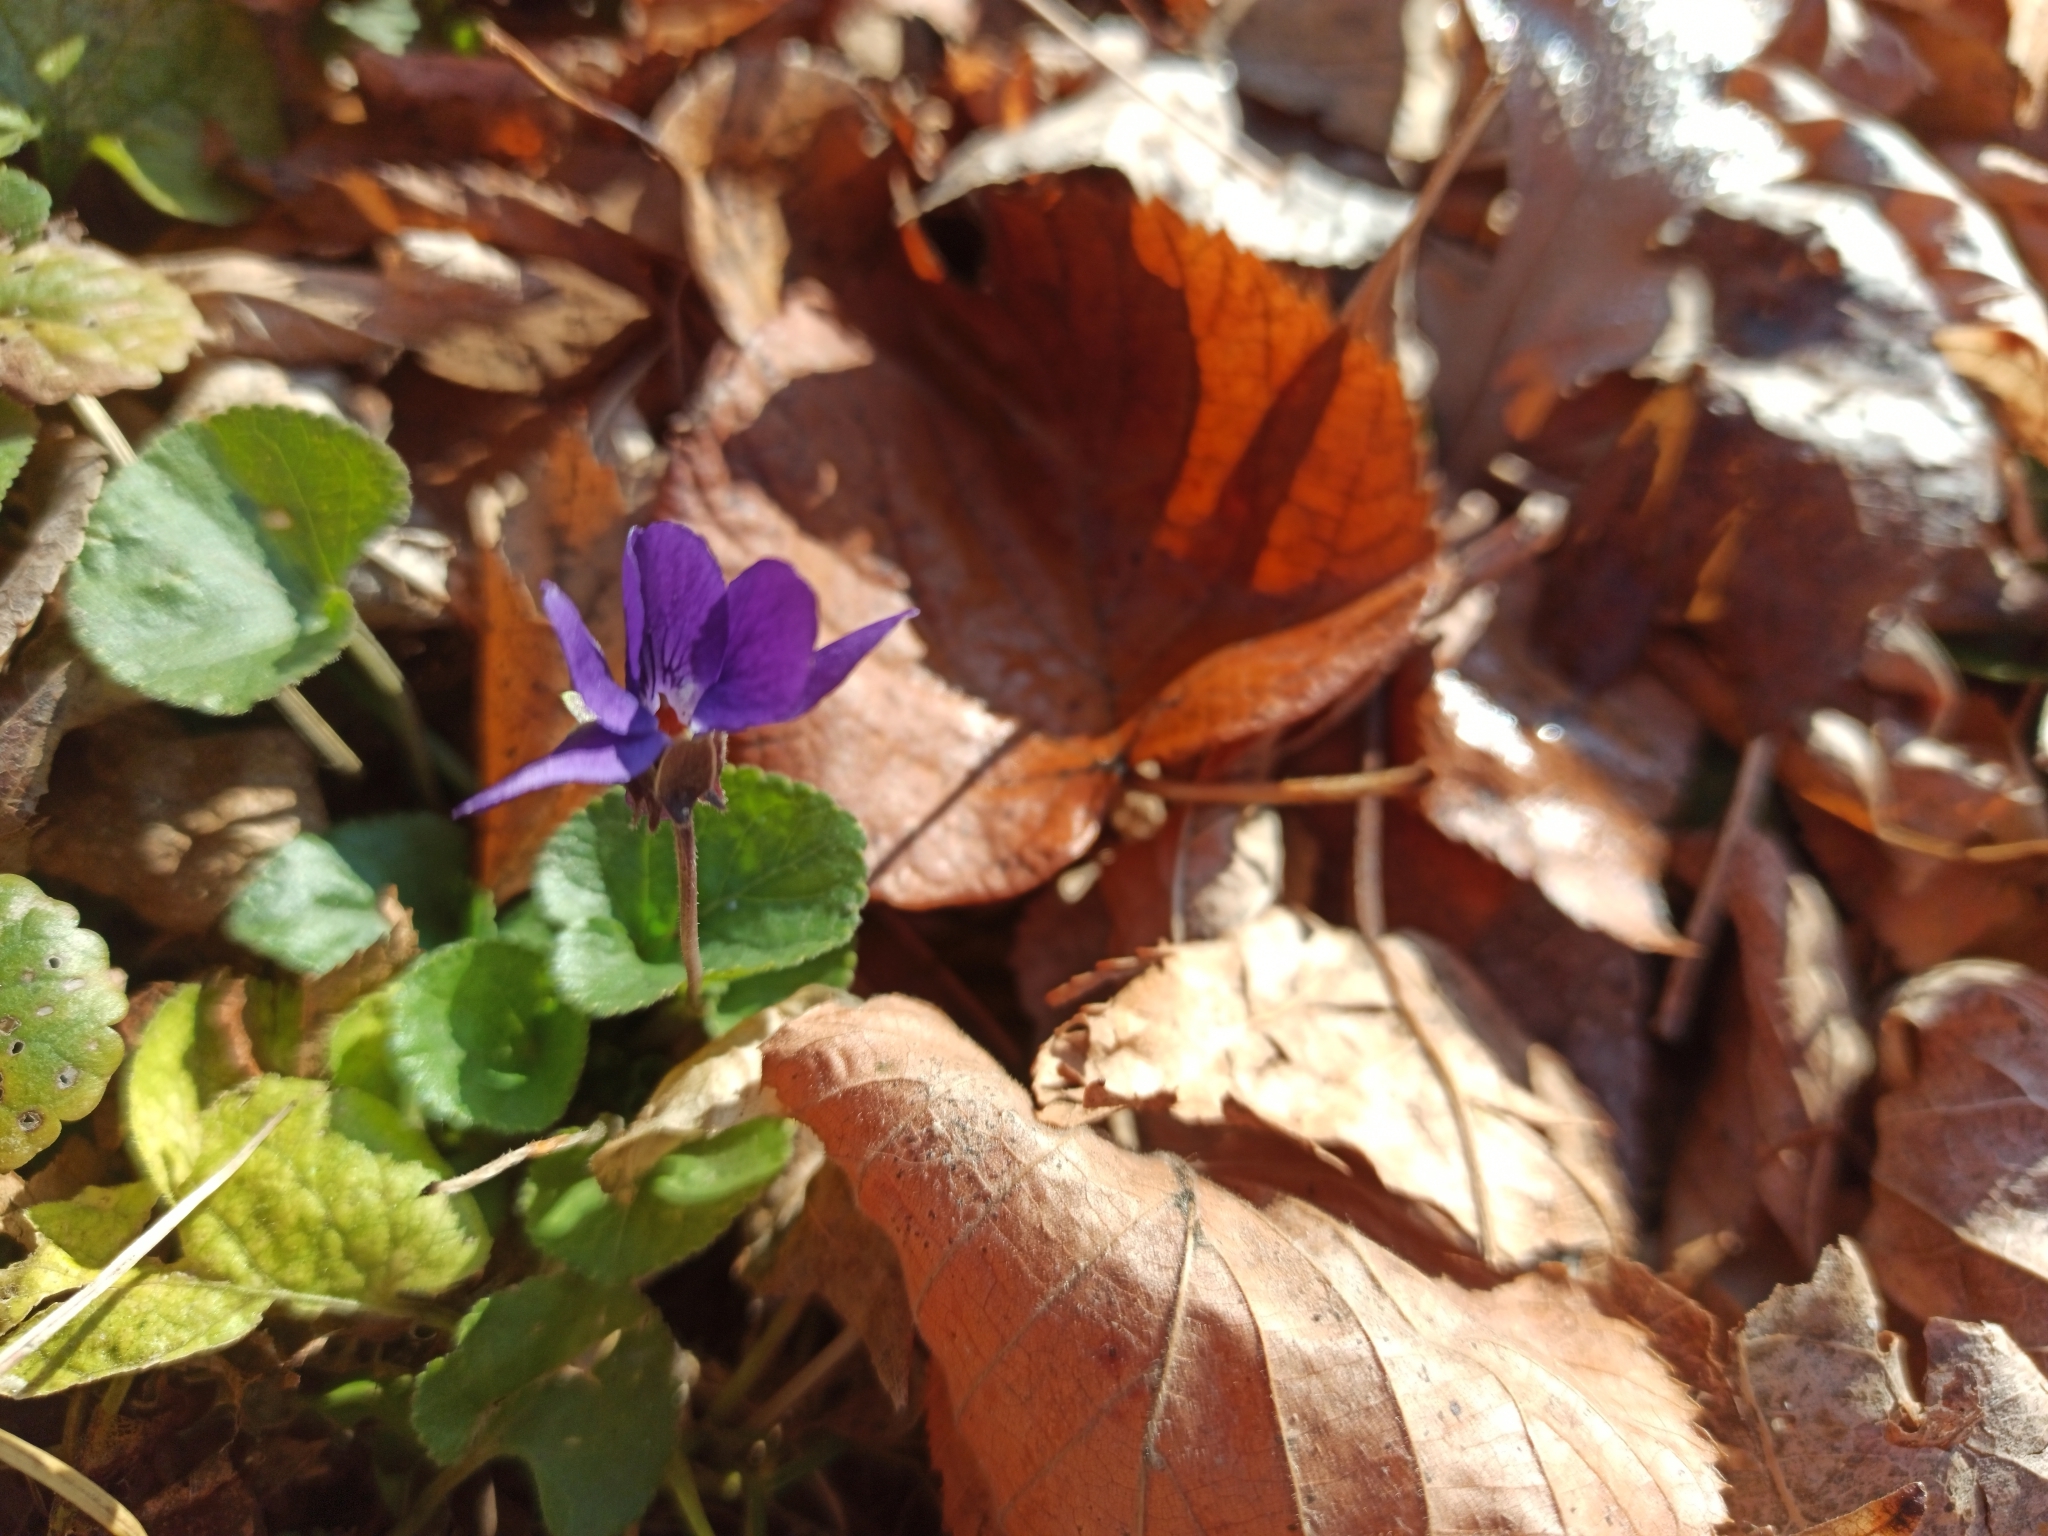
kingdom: Plantae
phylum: Tracheophyta
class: Magnoliopsida
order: Malpighiales
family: Violaceae
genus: Viola
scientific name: Viola odorata
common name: Sweet violet
